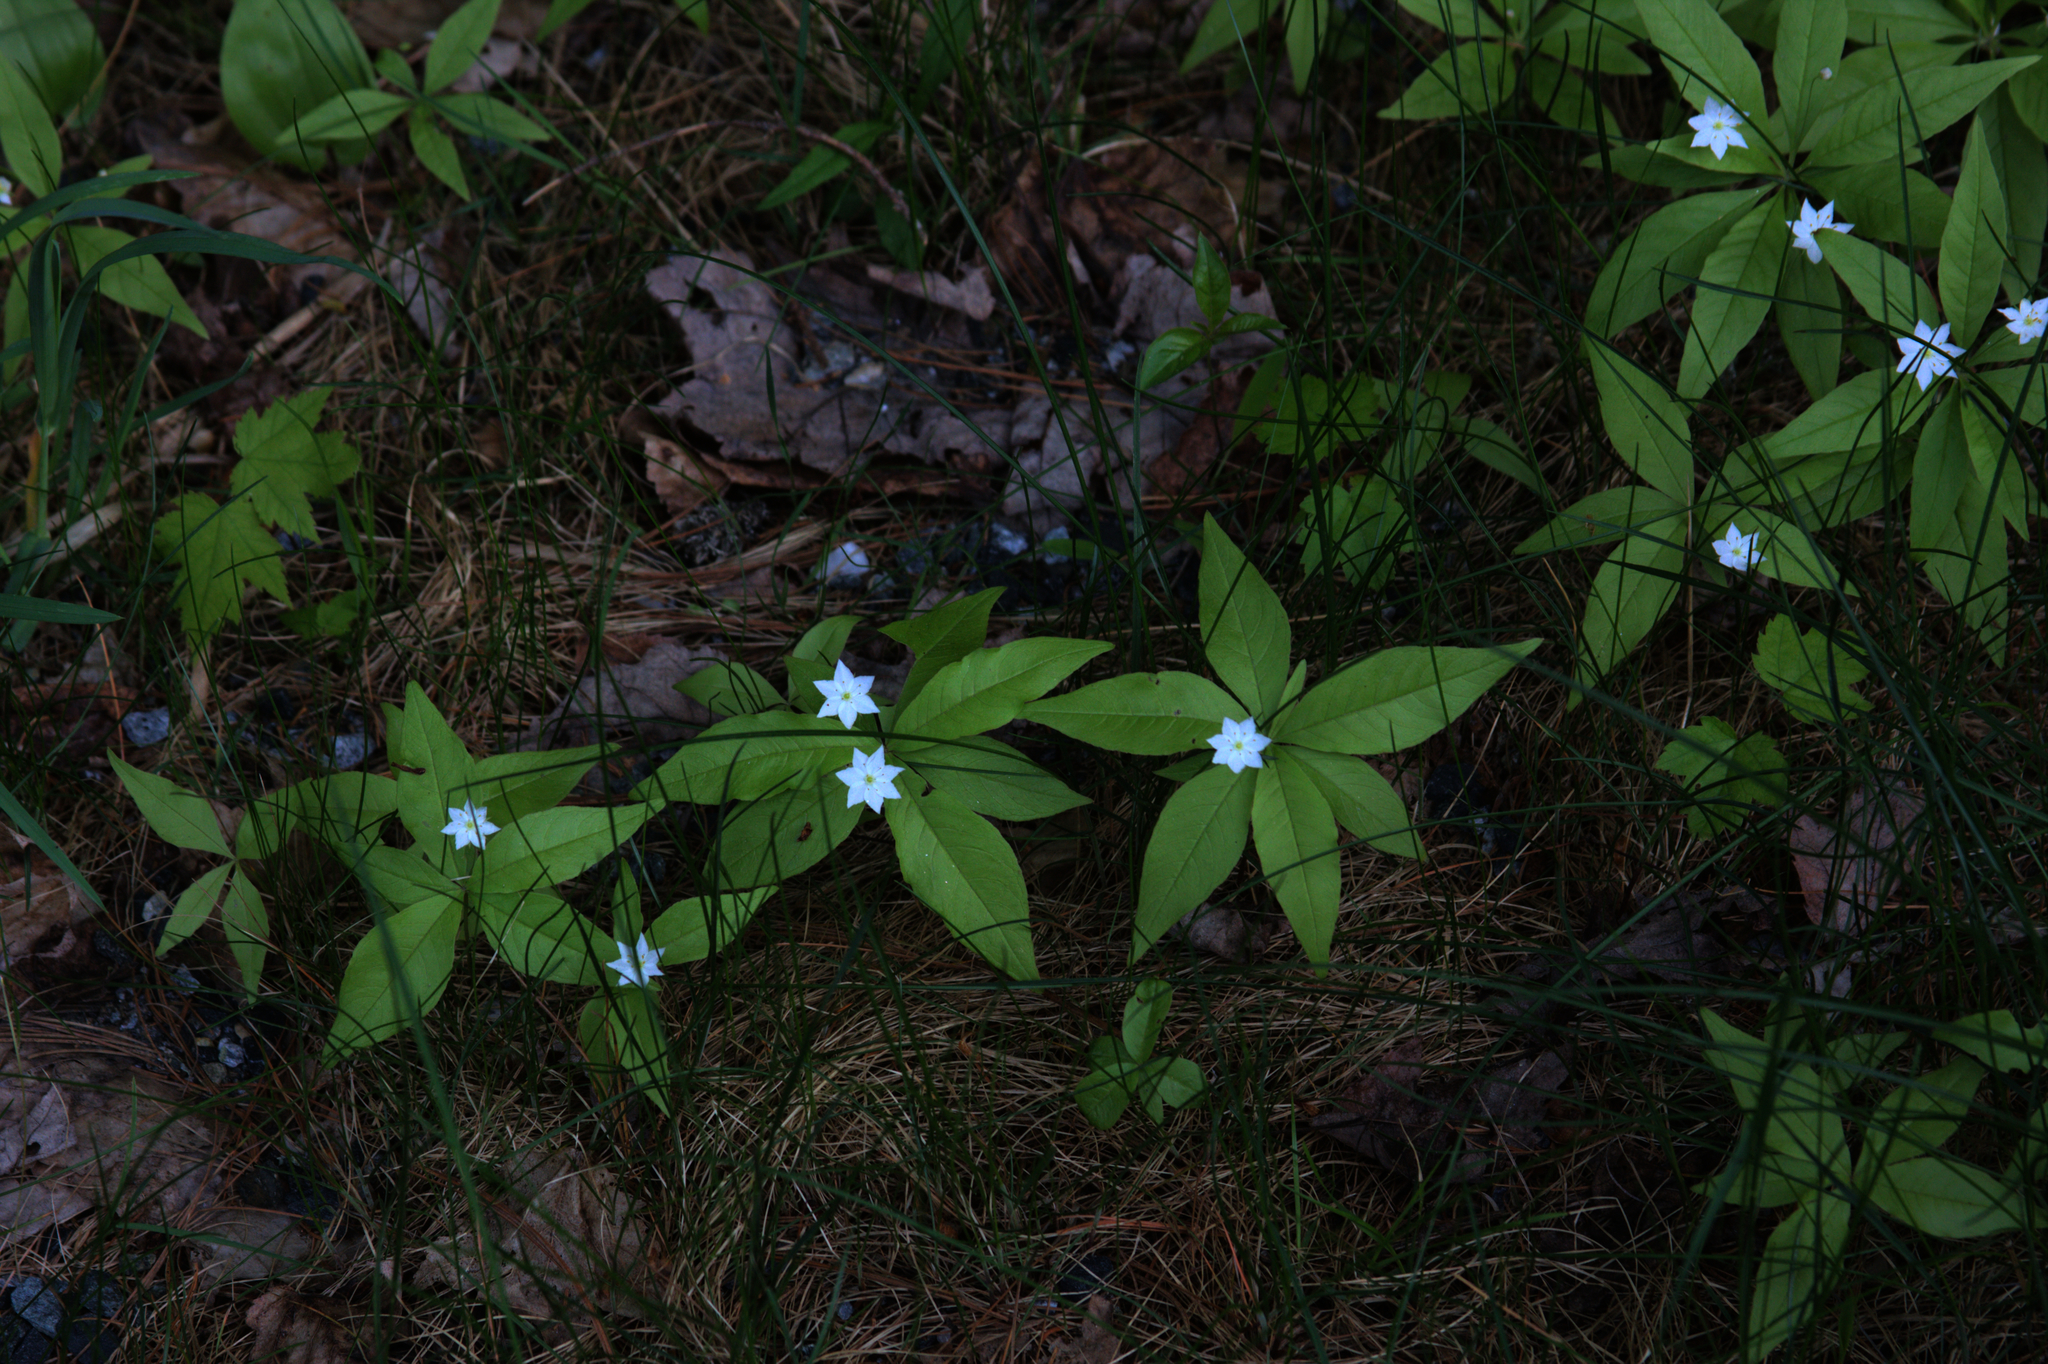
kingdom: Plantae
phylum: Tracheophyta
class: Magnoliopsida
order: Ericales
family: Primulaceae
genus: Lysimachia
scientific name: Lysimachia borealis
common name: American starflower
